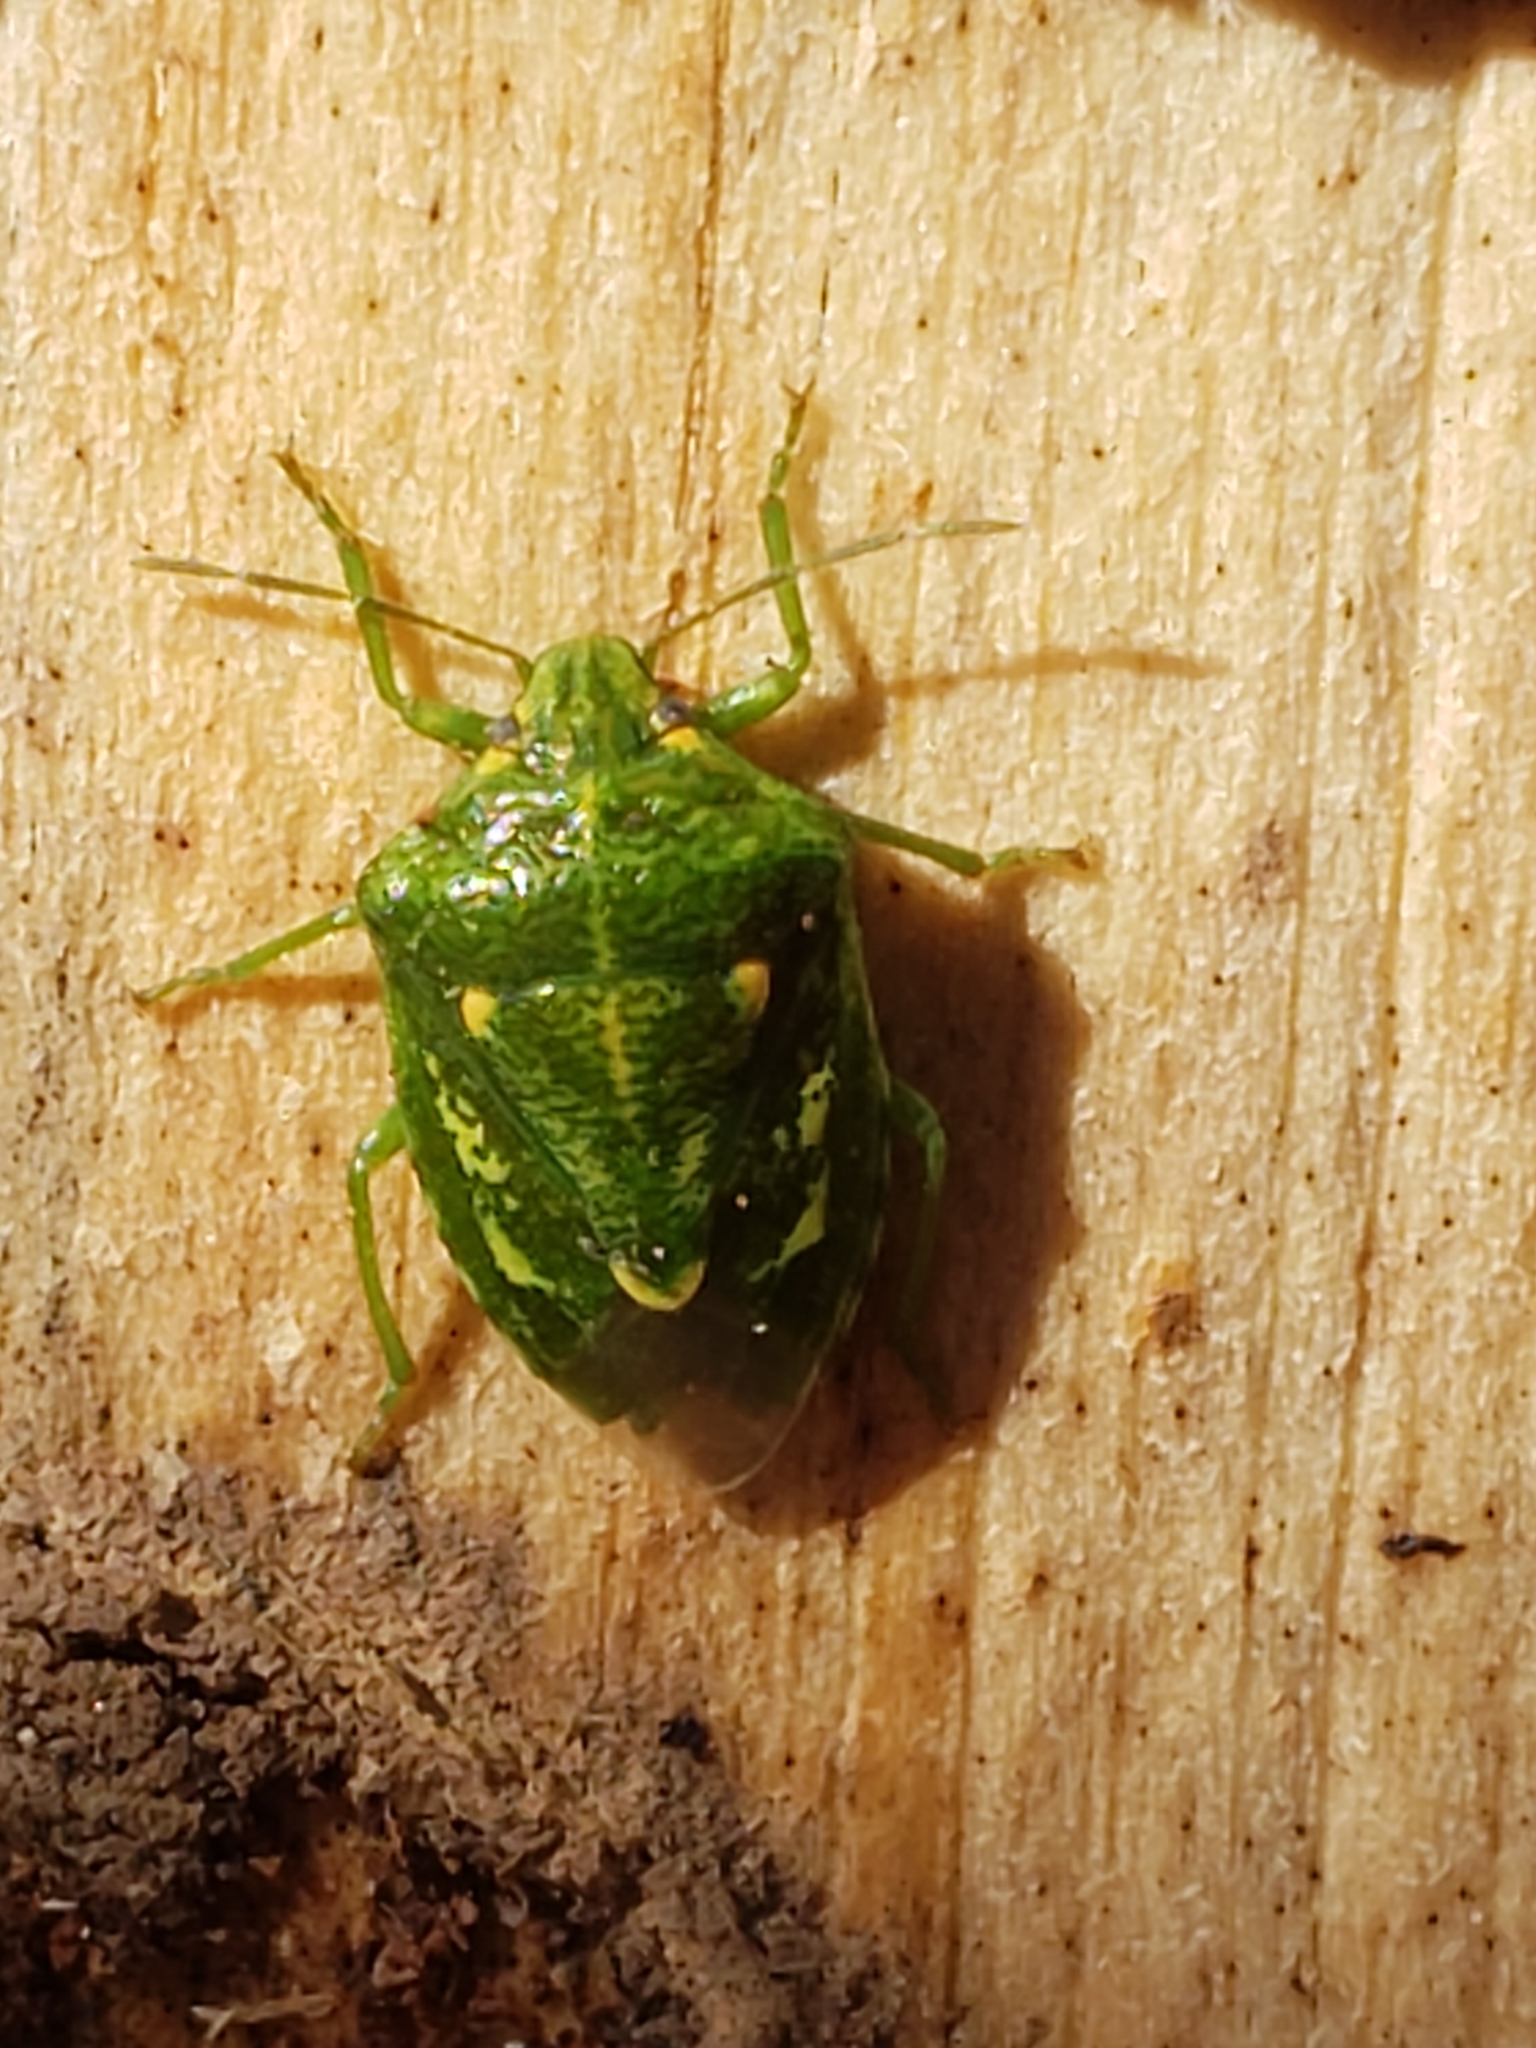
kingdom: Animalia
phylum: Arthropoda
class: Insecta
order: Hemiptera
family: Pentatomidae
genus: Banasa
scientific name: Banasa euchlora
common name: Cedar berry bug
